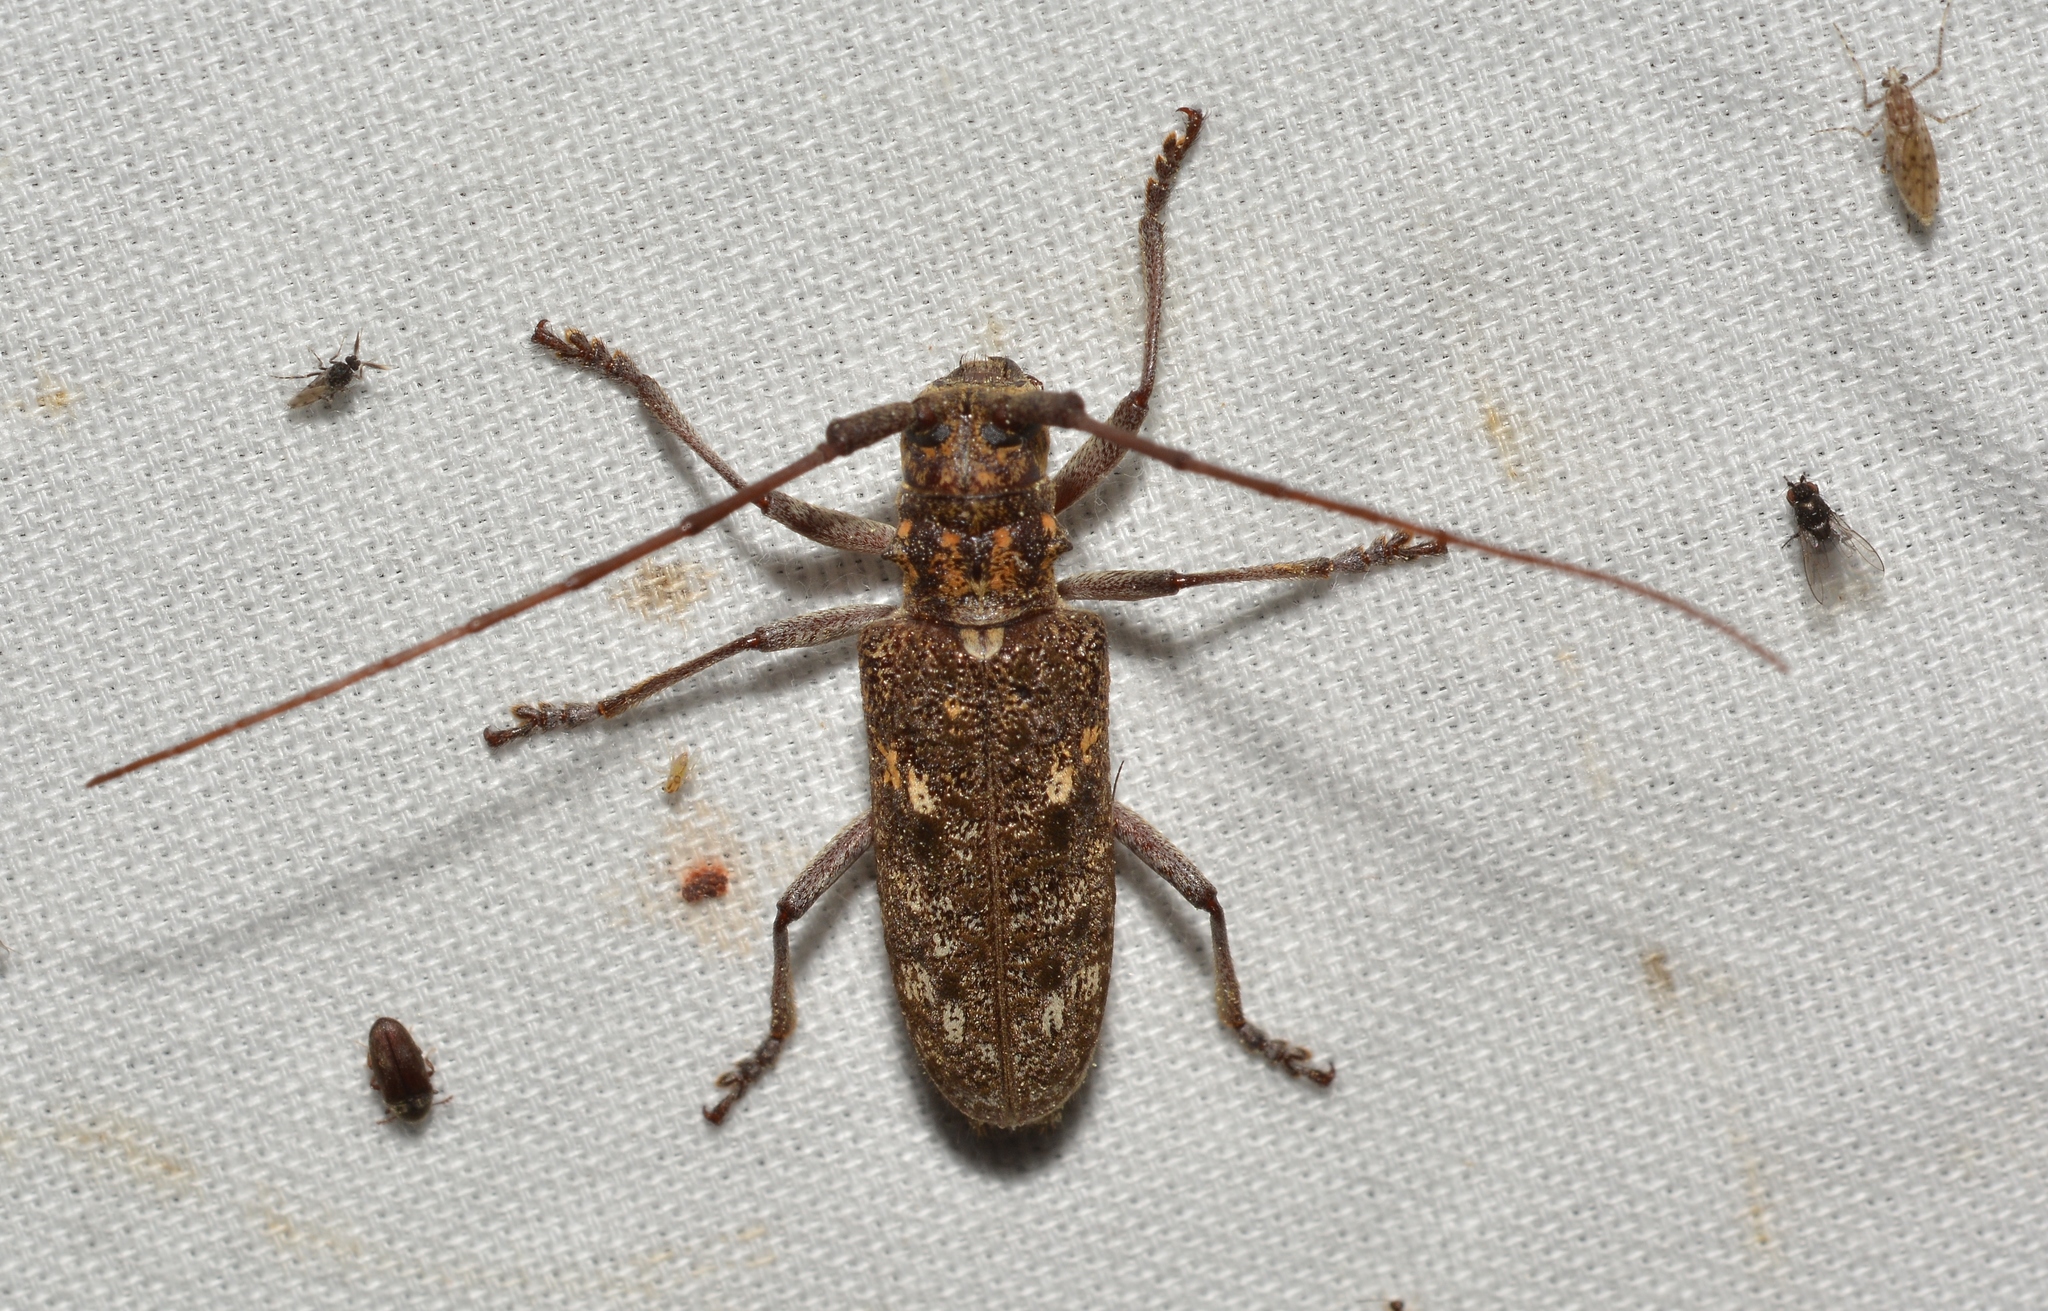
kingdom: Animalia
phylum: Arthropoda
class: Insecta
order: Coleoptera
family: Cerambycidae
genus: Monochamus
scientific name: Monochamus carolinensis
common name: Carolina pine sawyer
